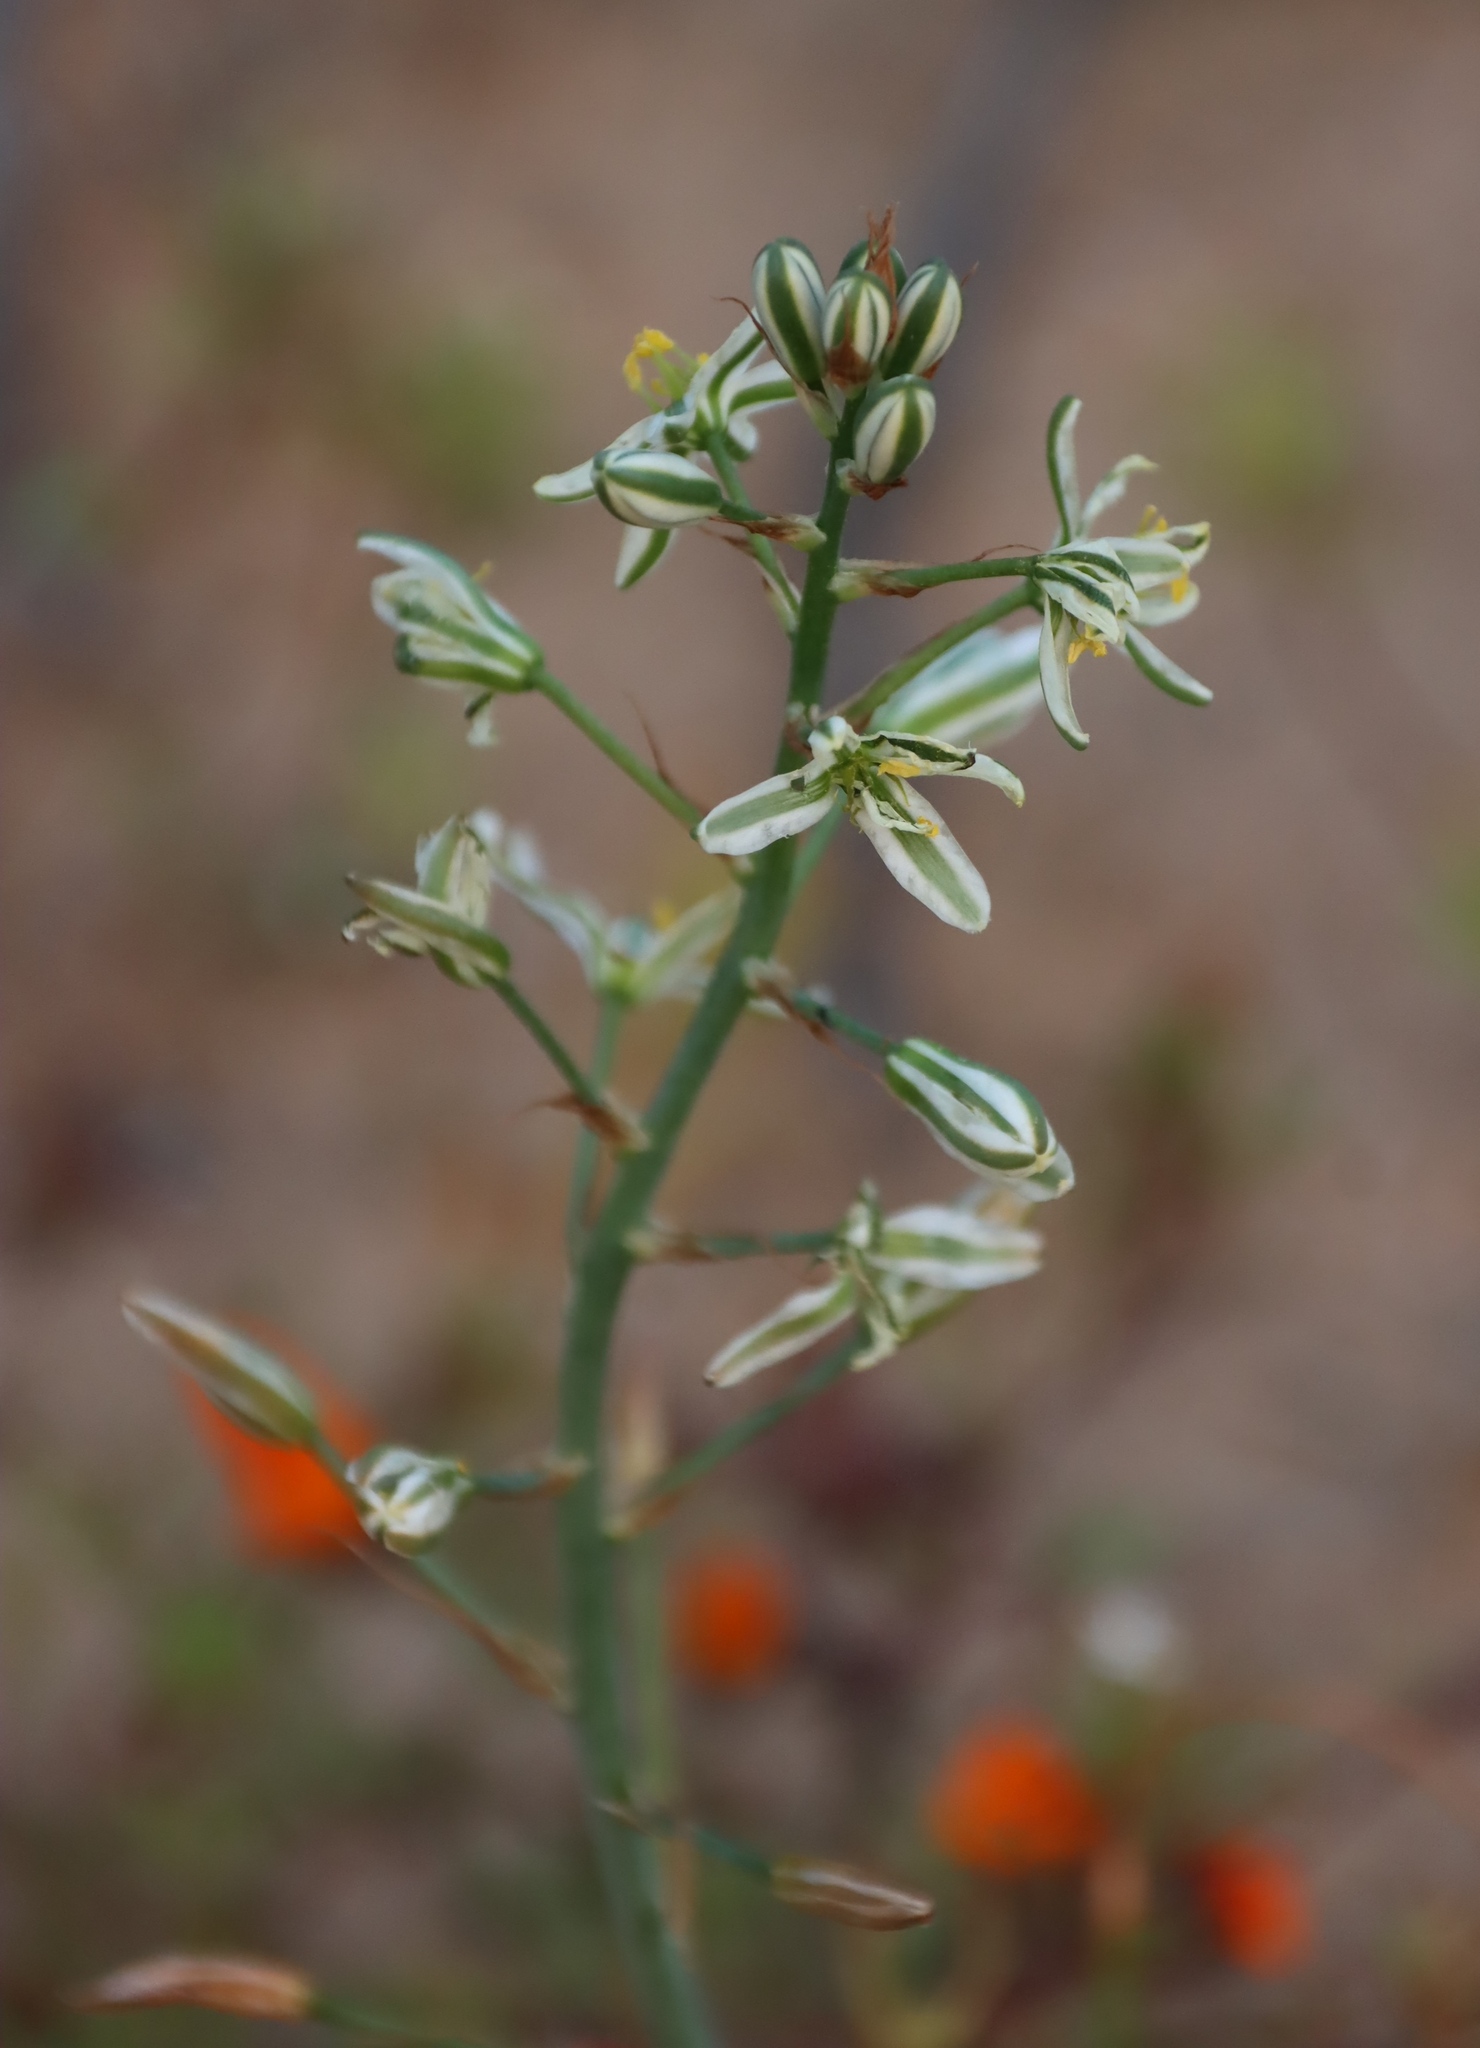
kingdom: Plantae
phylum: Tracheophyta
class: Liliopsida
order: Asparagales
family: Asparagaceae
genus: Albuca
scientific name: Albuca consanguinea
